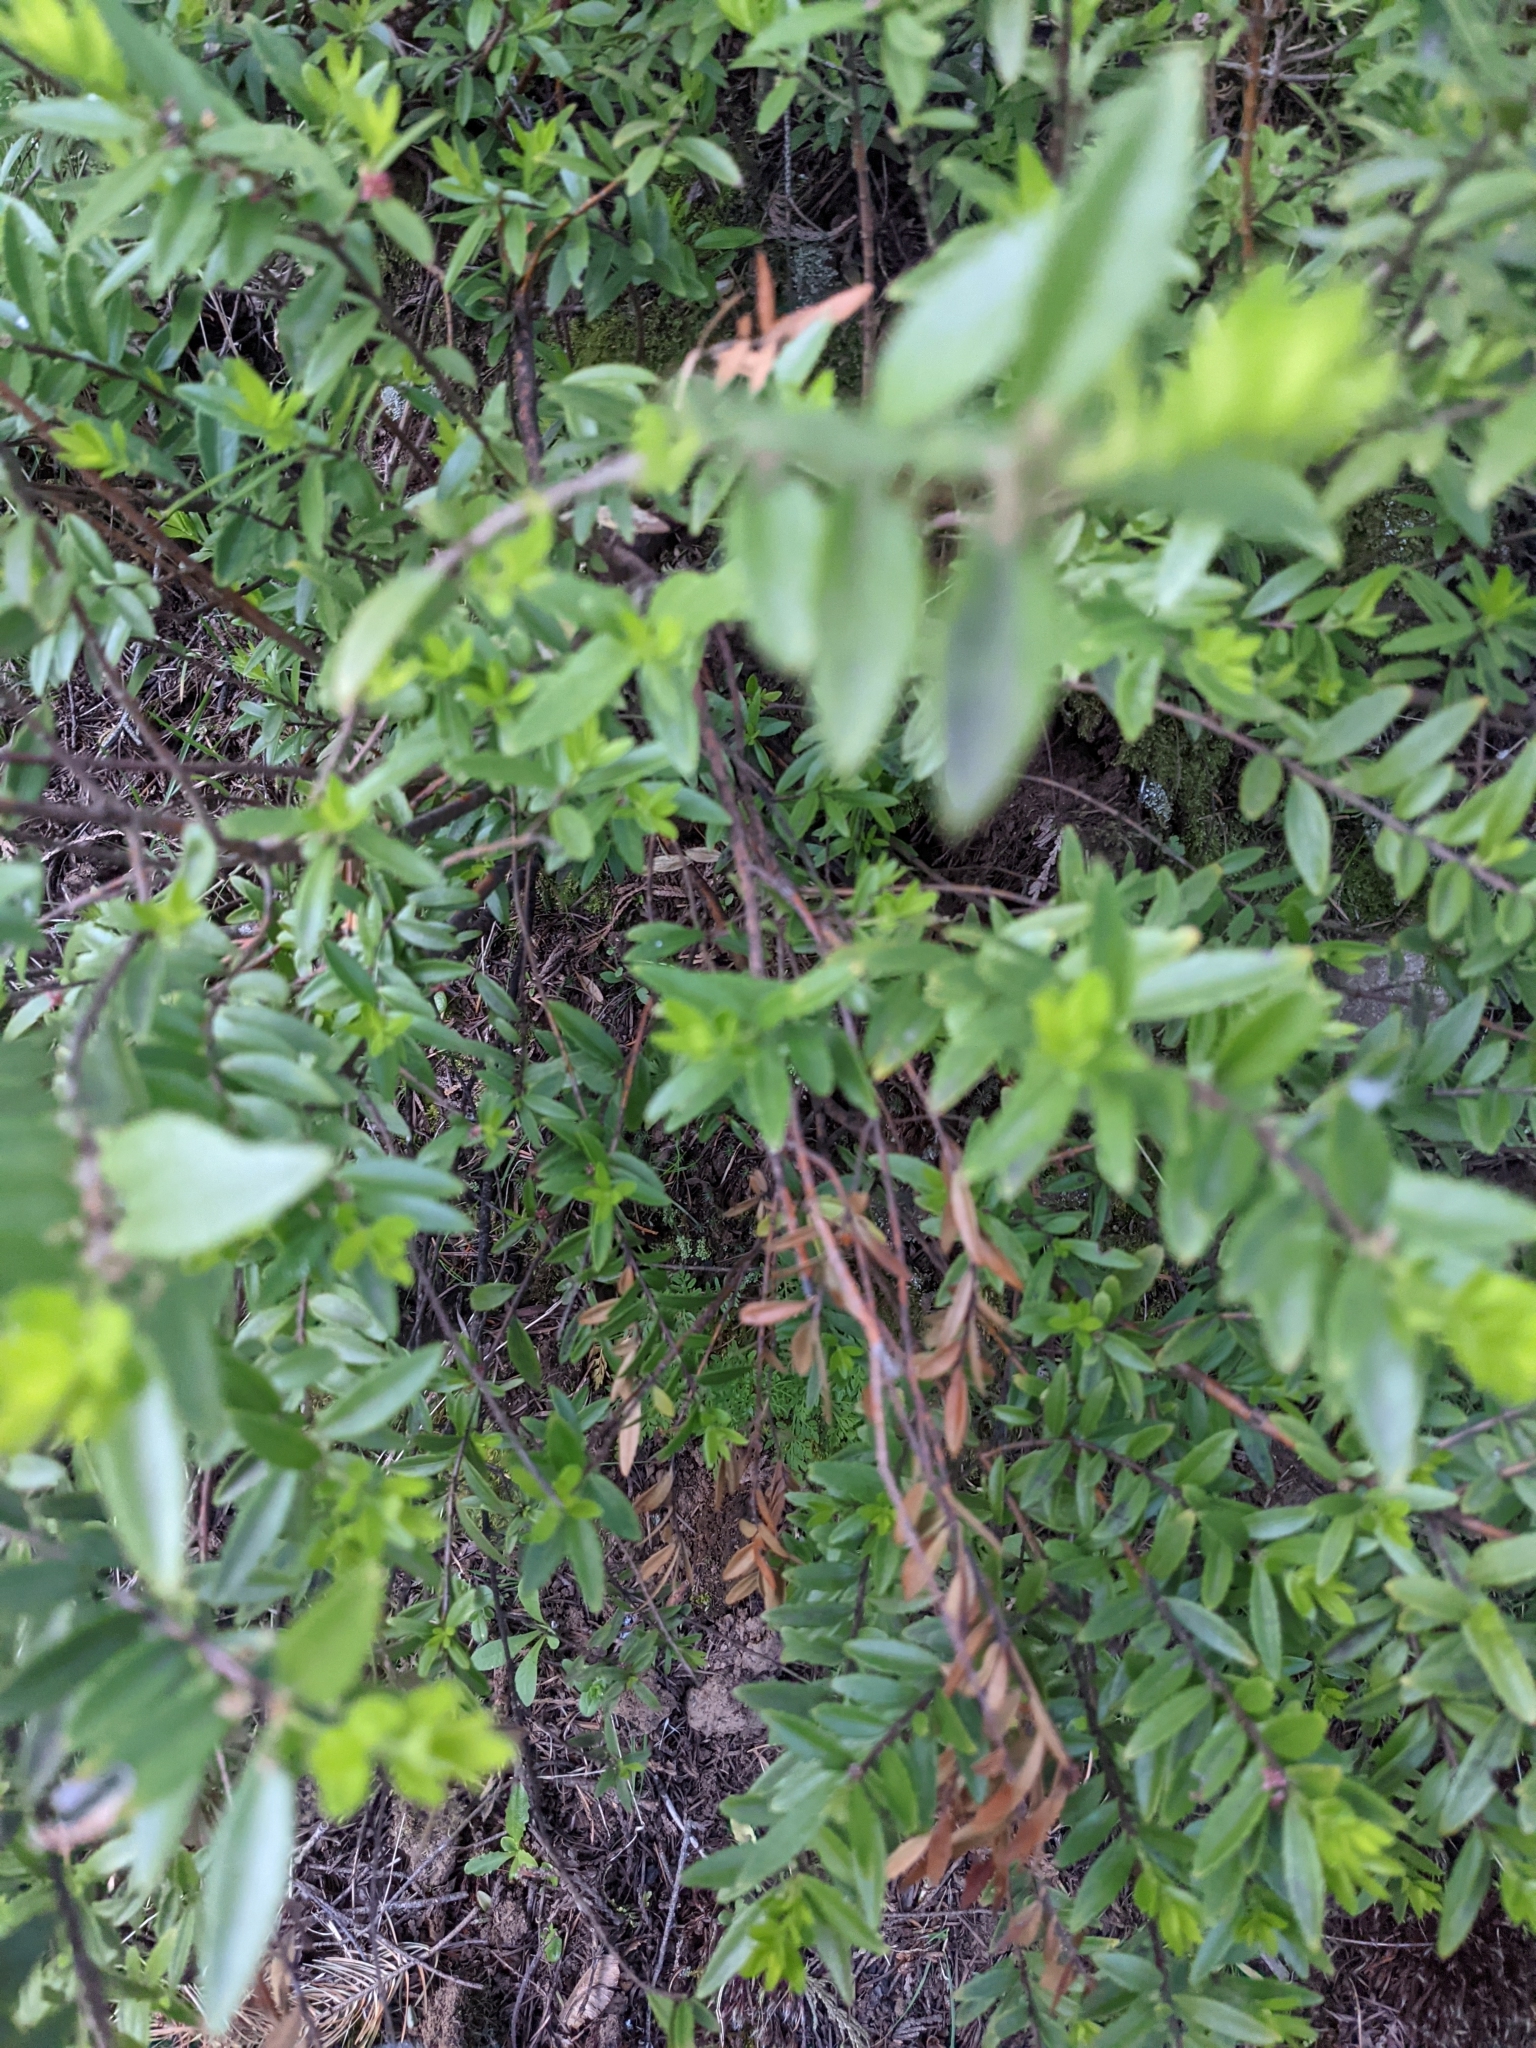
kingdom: Plantae
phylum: Tracheophyta
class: Magnoliopsida
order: Celastrales
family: Celastraceae
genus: Paxistima
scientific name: Paxistima myrsinites
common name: Mountain-lover
